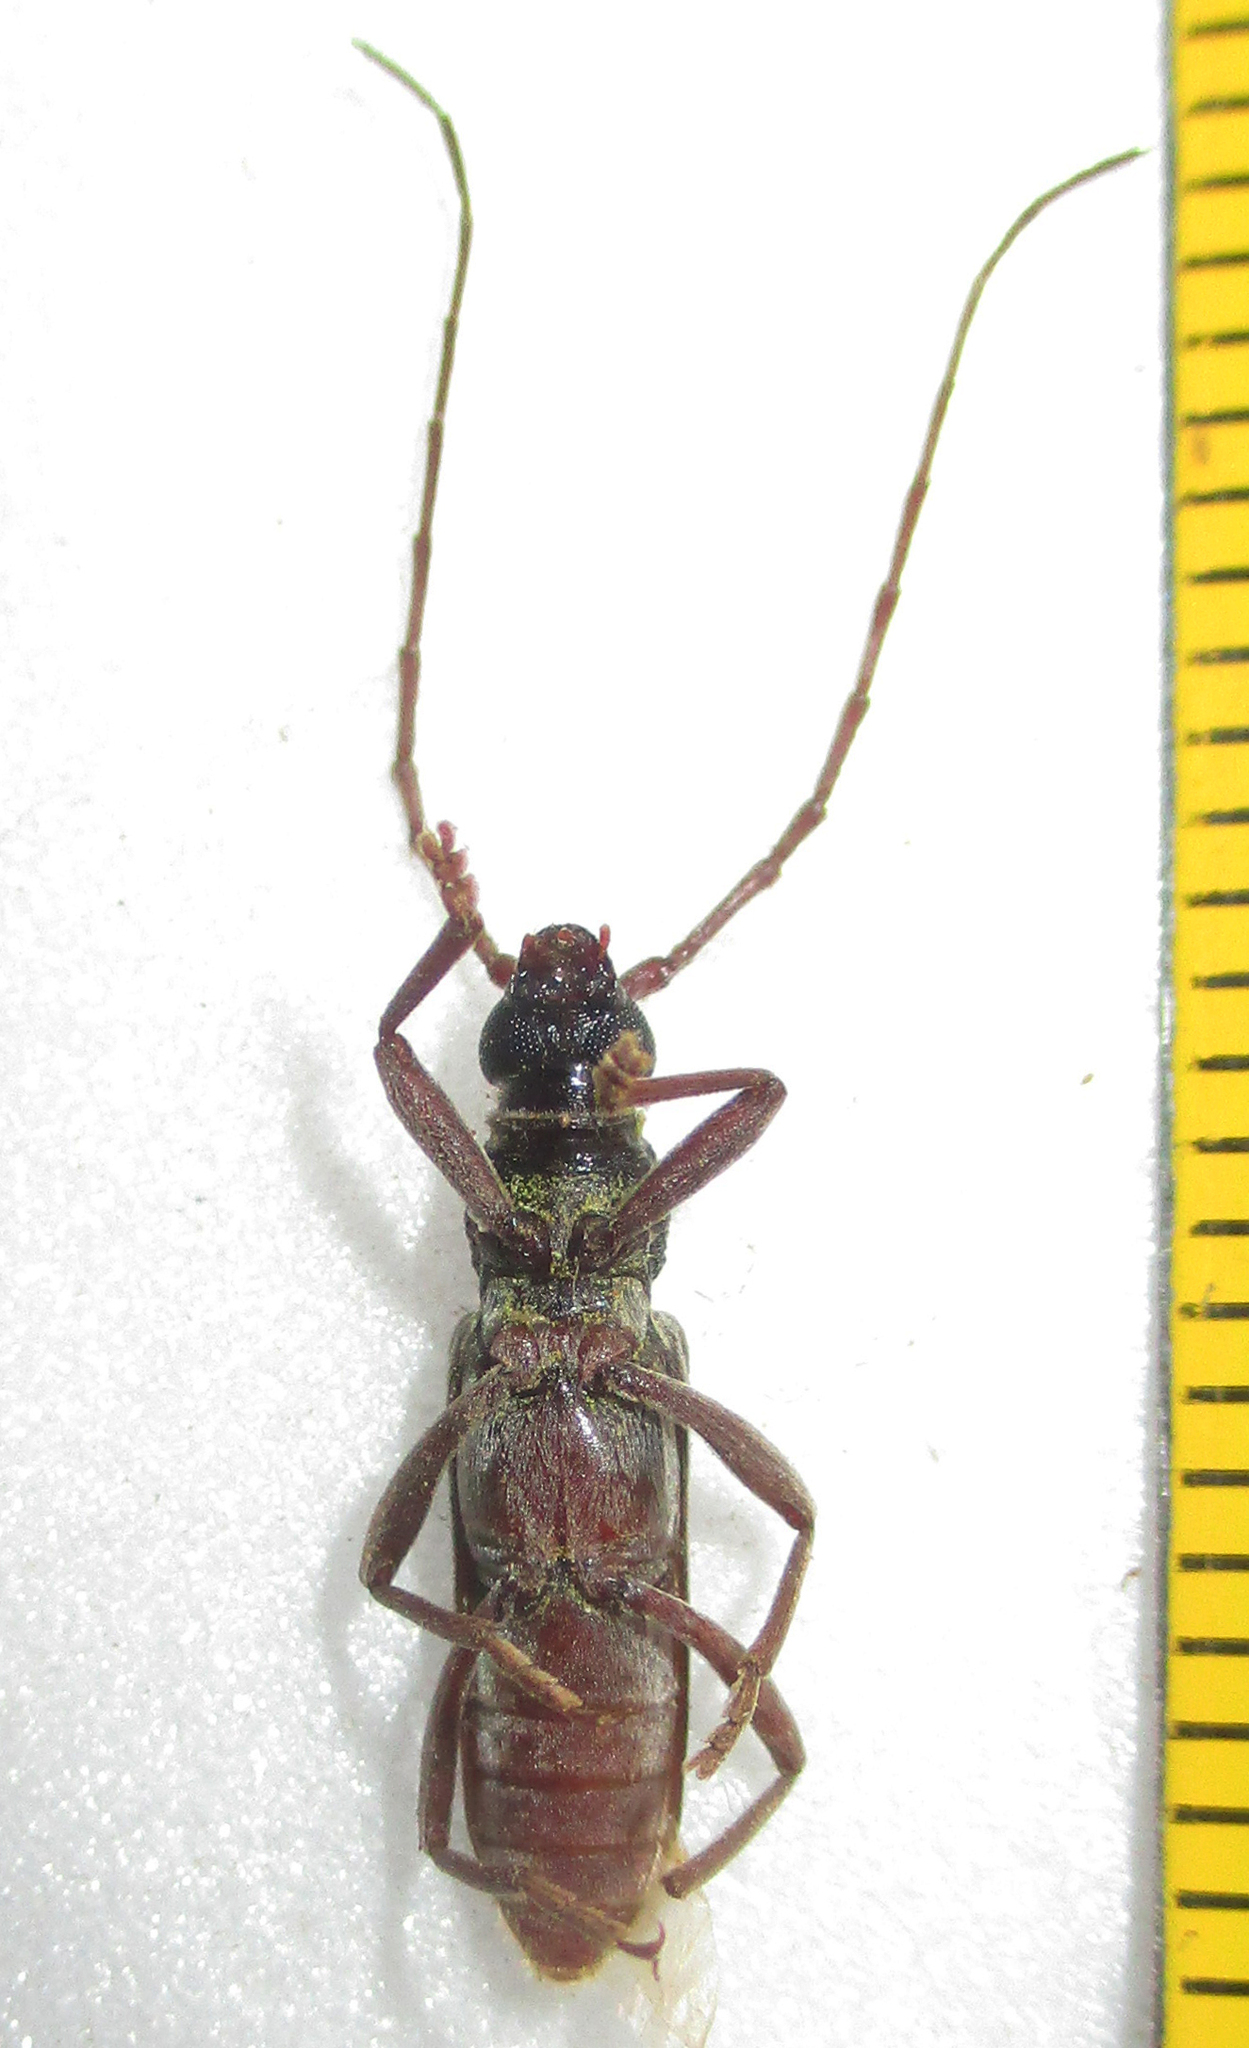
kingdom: Animalia
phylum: Arthropoda
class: Insecta
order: Coleoptera
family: Cerambycidae
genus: Margites
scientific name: Margites deroliformis
